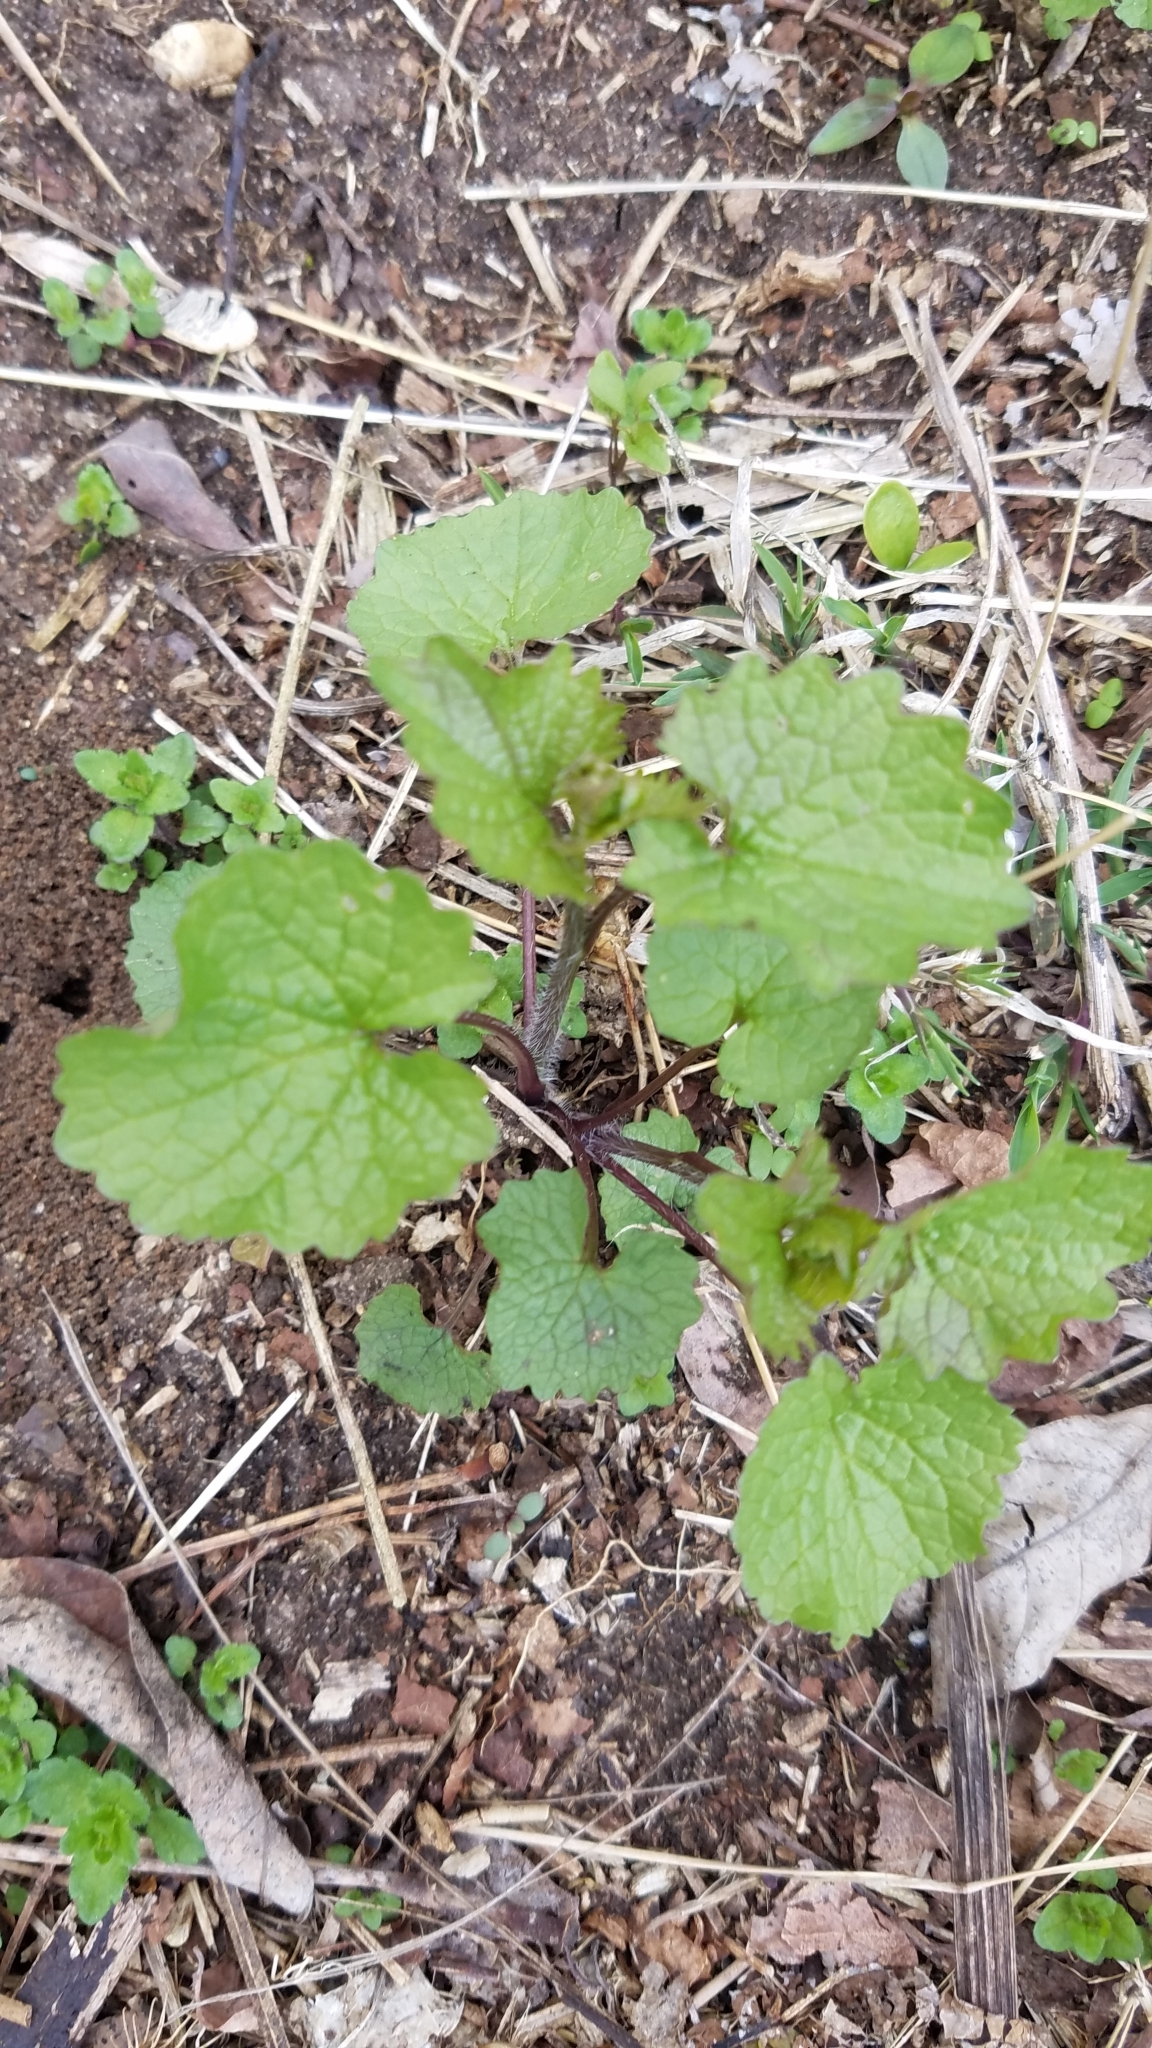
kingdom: Plantae
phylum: Tracheophyta
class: Magnoliopsida
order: Brassicales
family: Brassicaceae
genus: Alliaria
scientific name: Alliaria petiolata
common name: Garlic mustard
